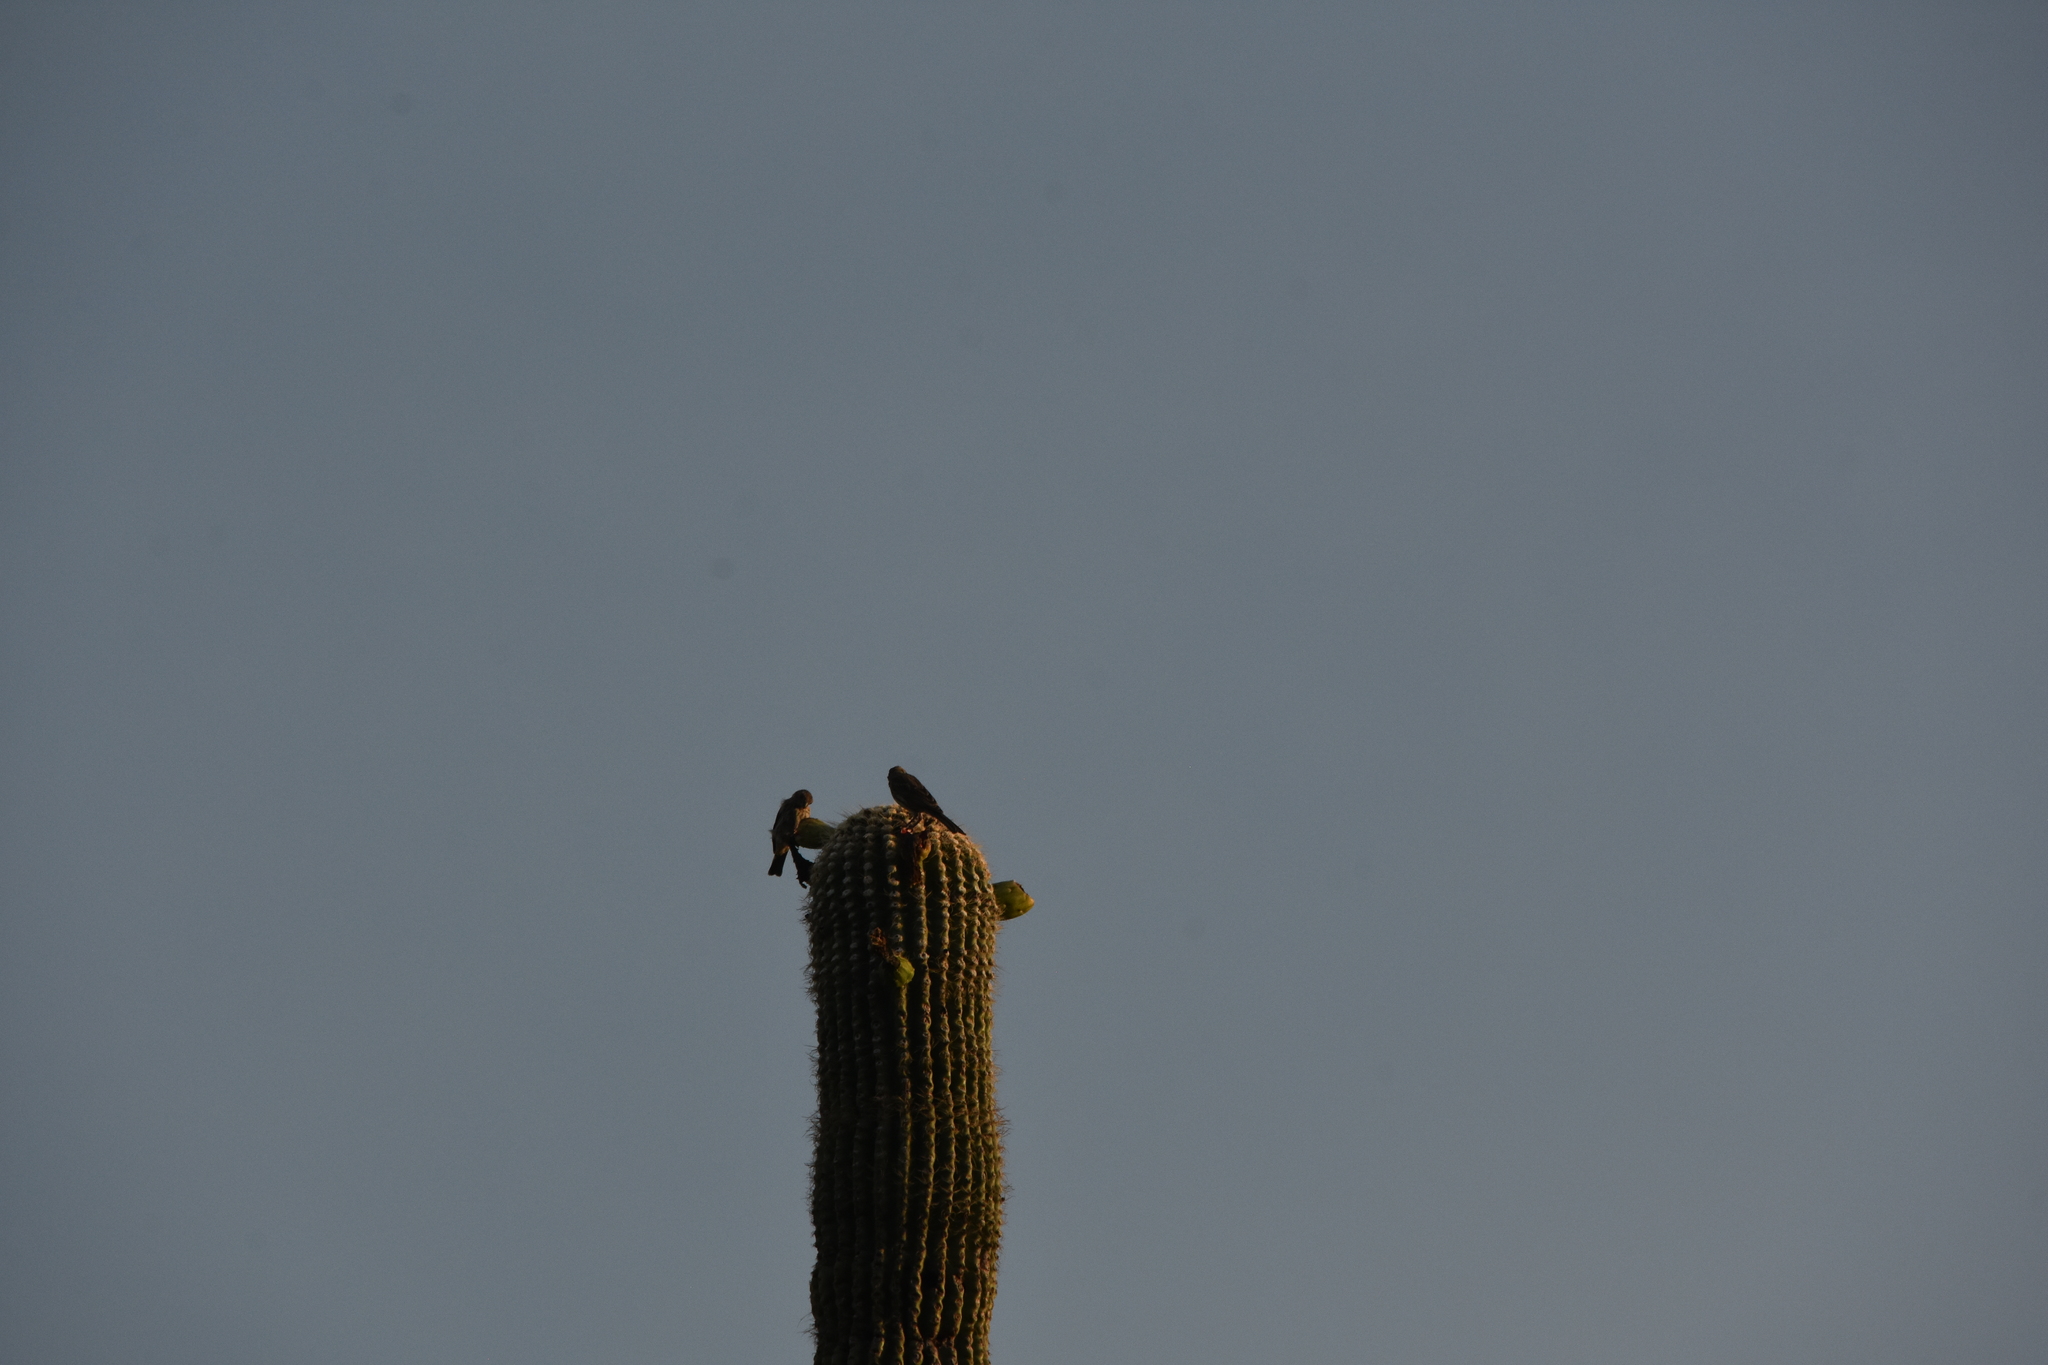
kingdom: Animalia
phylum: Chordata
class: Aves
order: Passeriformes
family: Fringillidae
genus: Haemorhous
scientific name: Haemorhous mexicanus
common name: House finch
